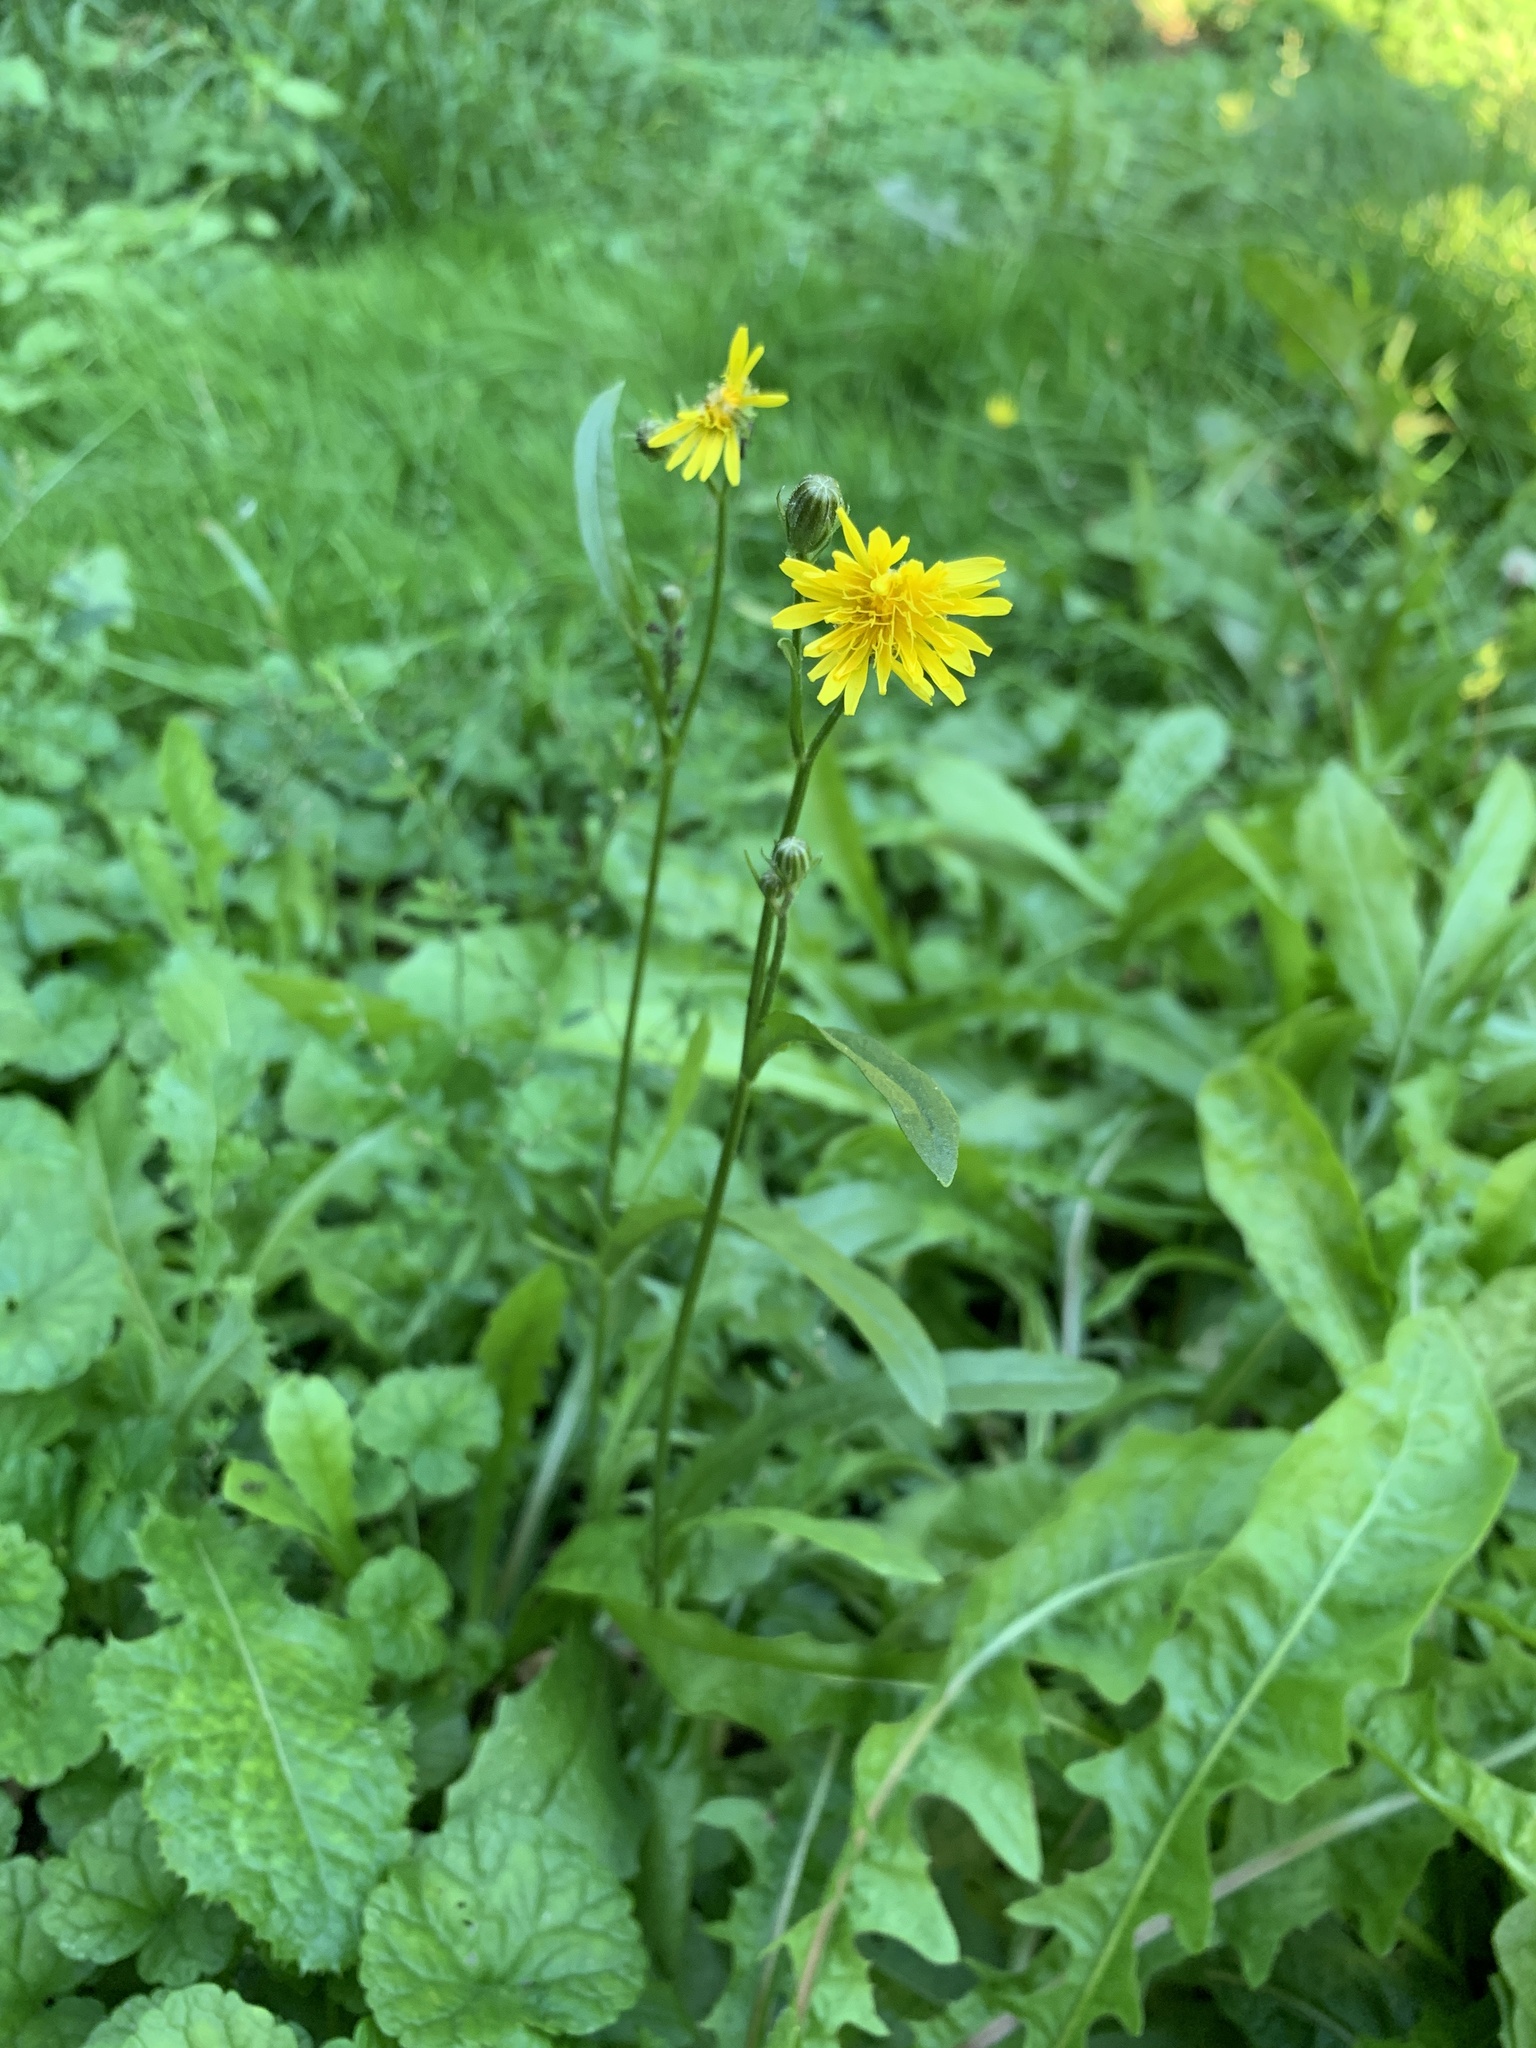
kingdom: Plantae
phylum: Tracheophyta
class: Magnoliopsida
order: Asterales
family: Asteraceae
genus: Crepis
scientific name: Crepis biennis
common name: Rough hawk's-beard
